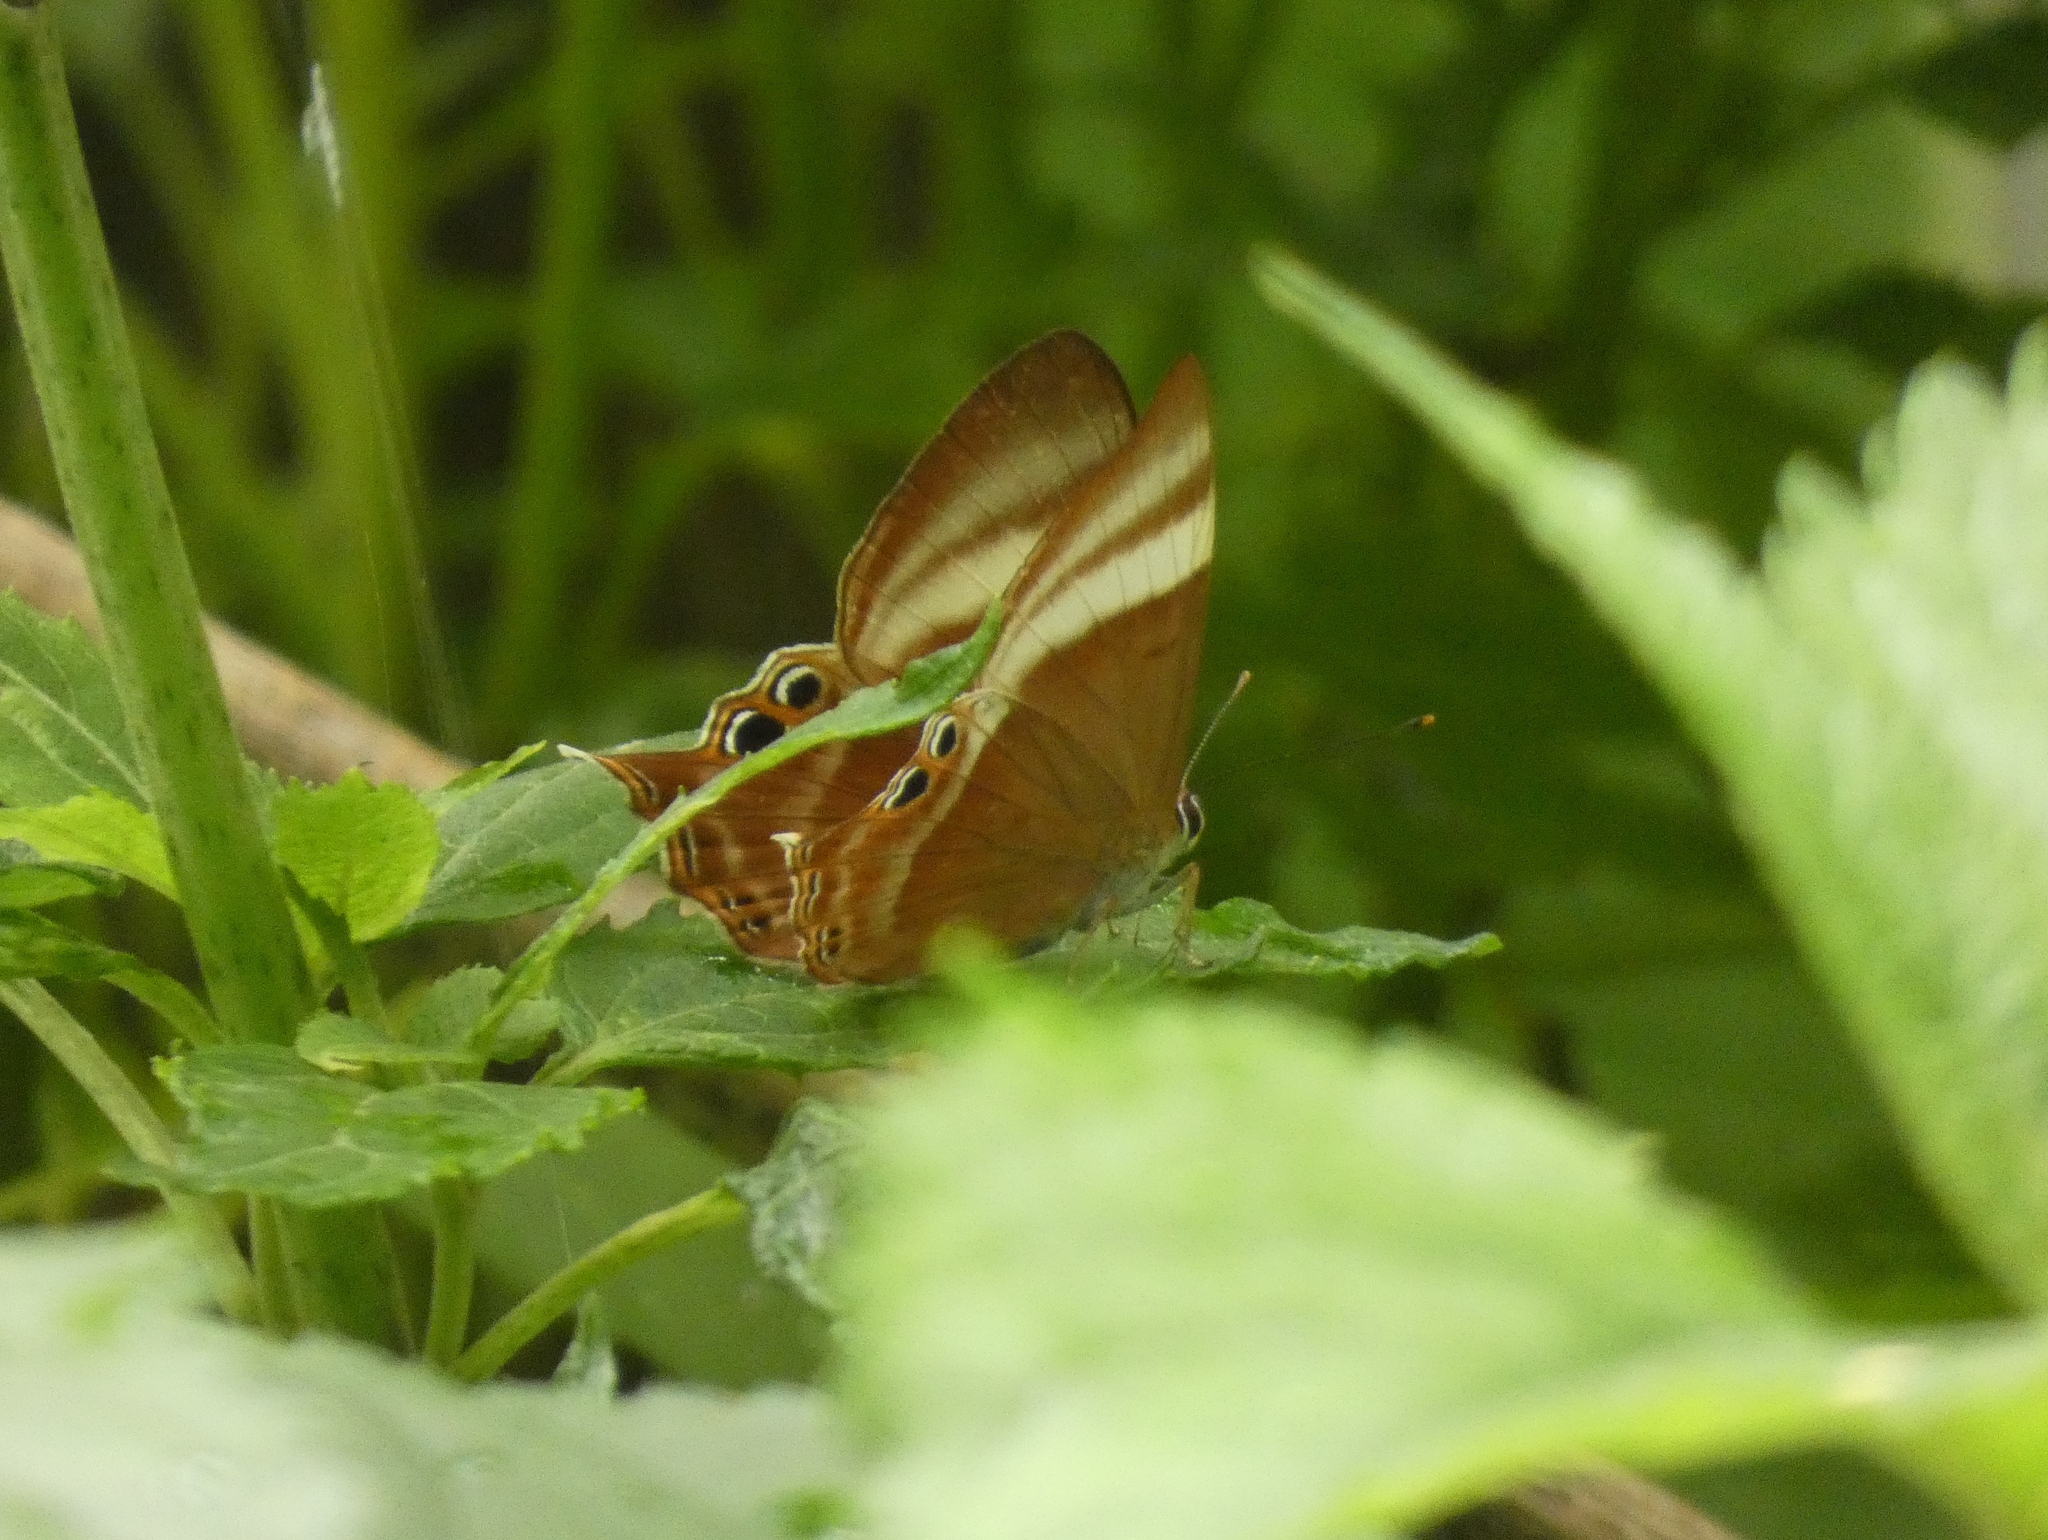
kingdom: Animalia
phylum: Arthropoda
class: Insecta
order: Lepidoptera
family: Lycaenidae
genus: Abisara
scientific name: Abisara savitri
